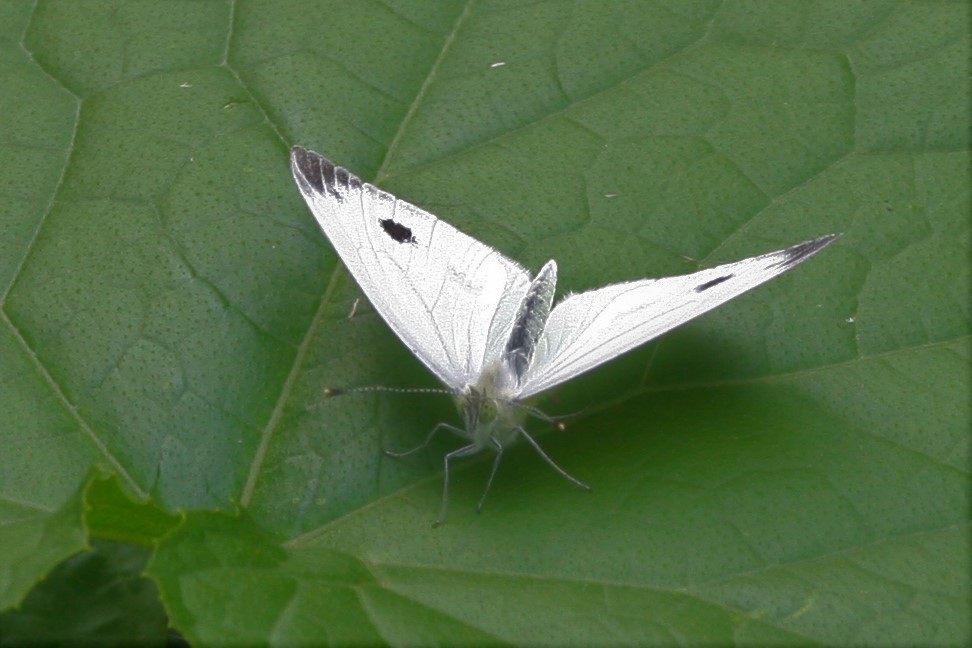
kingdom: Animalia
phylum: Arthropoda
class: Insecta
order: Lepidoptera
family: Pieridae
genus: Pieris
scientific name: Pieris rapae
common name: Small white
